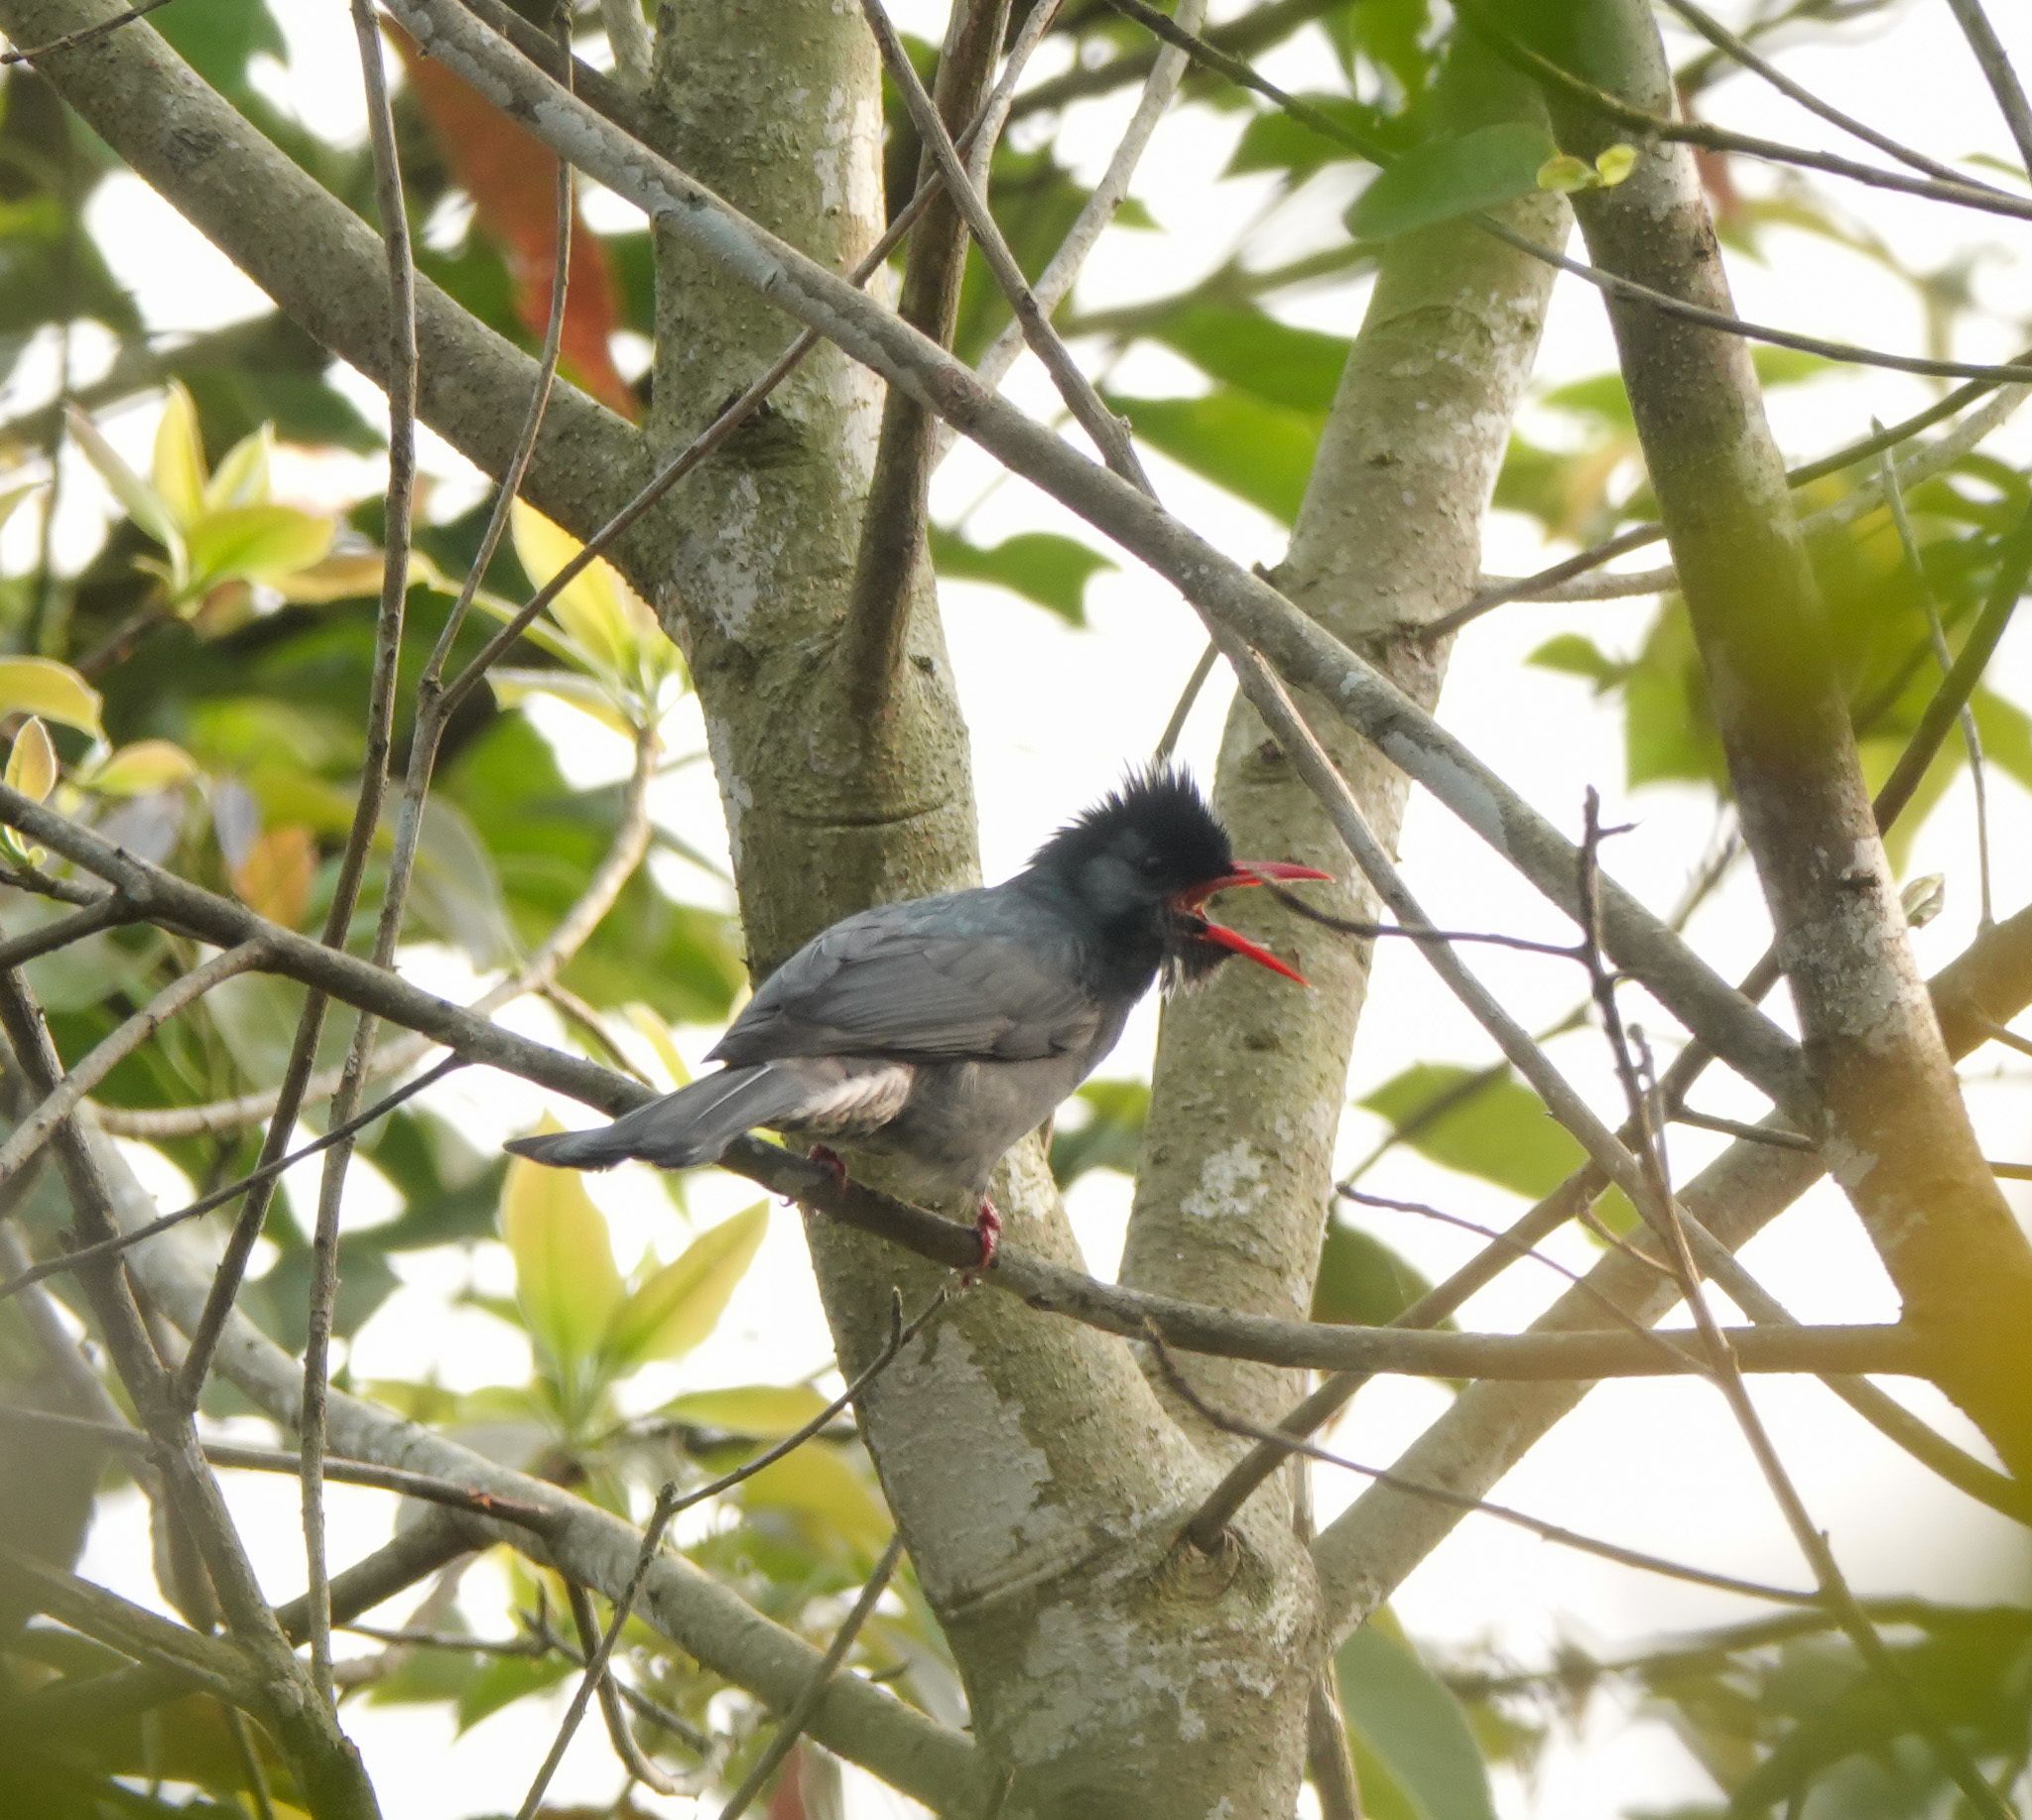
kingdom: Animalia
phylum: Chordata
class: Aves
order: Passeriformes
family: Pycnonotidae
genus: Hypsipetes
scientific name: Hypsipetes leucocephalus
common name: Black bulbul
